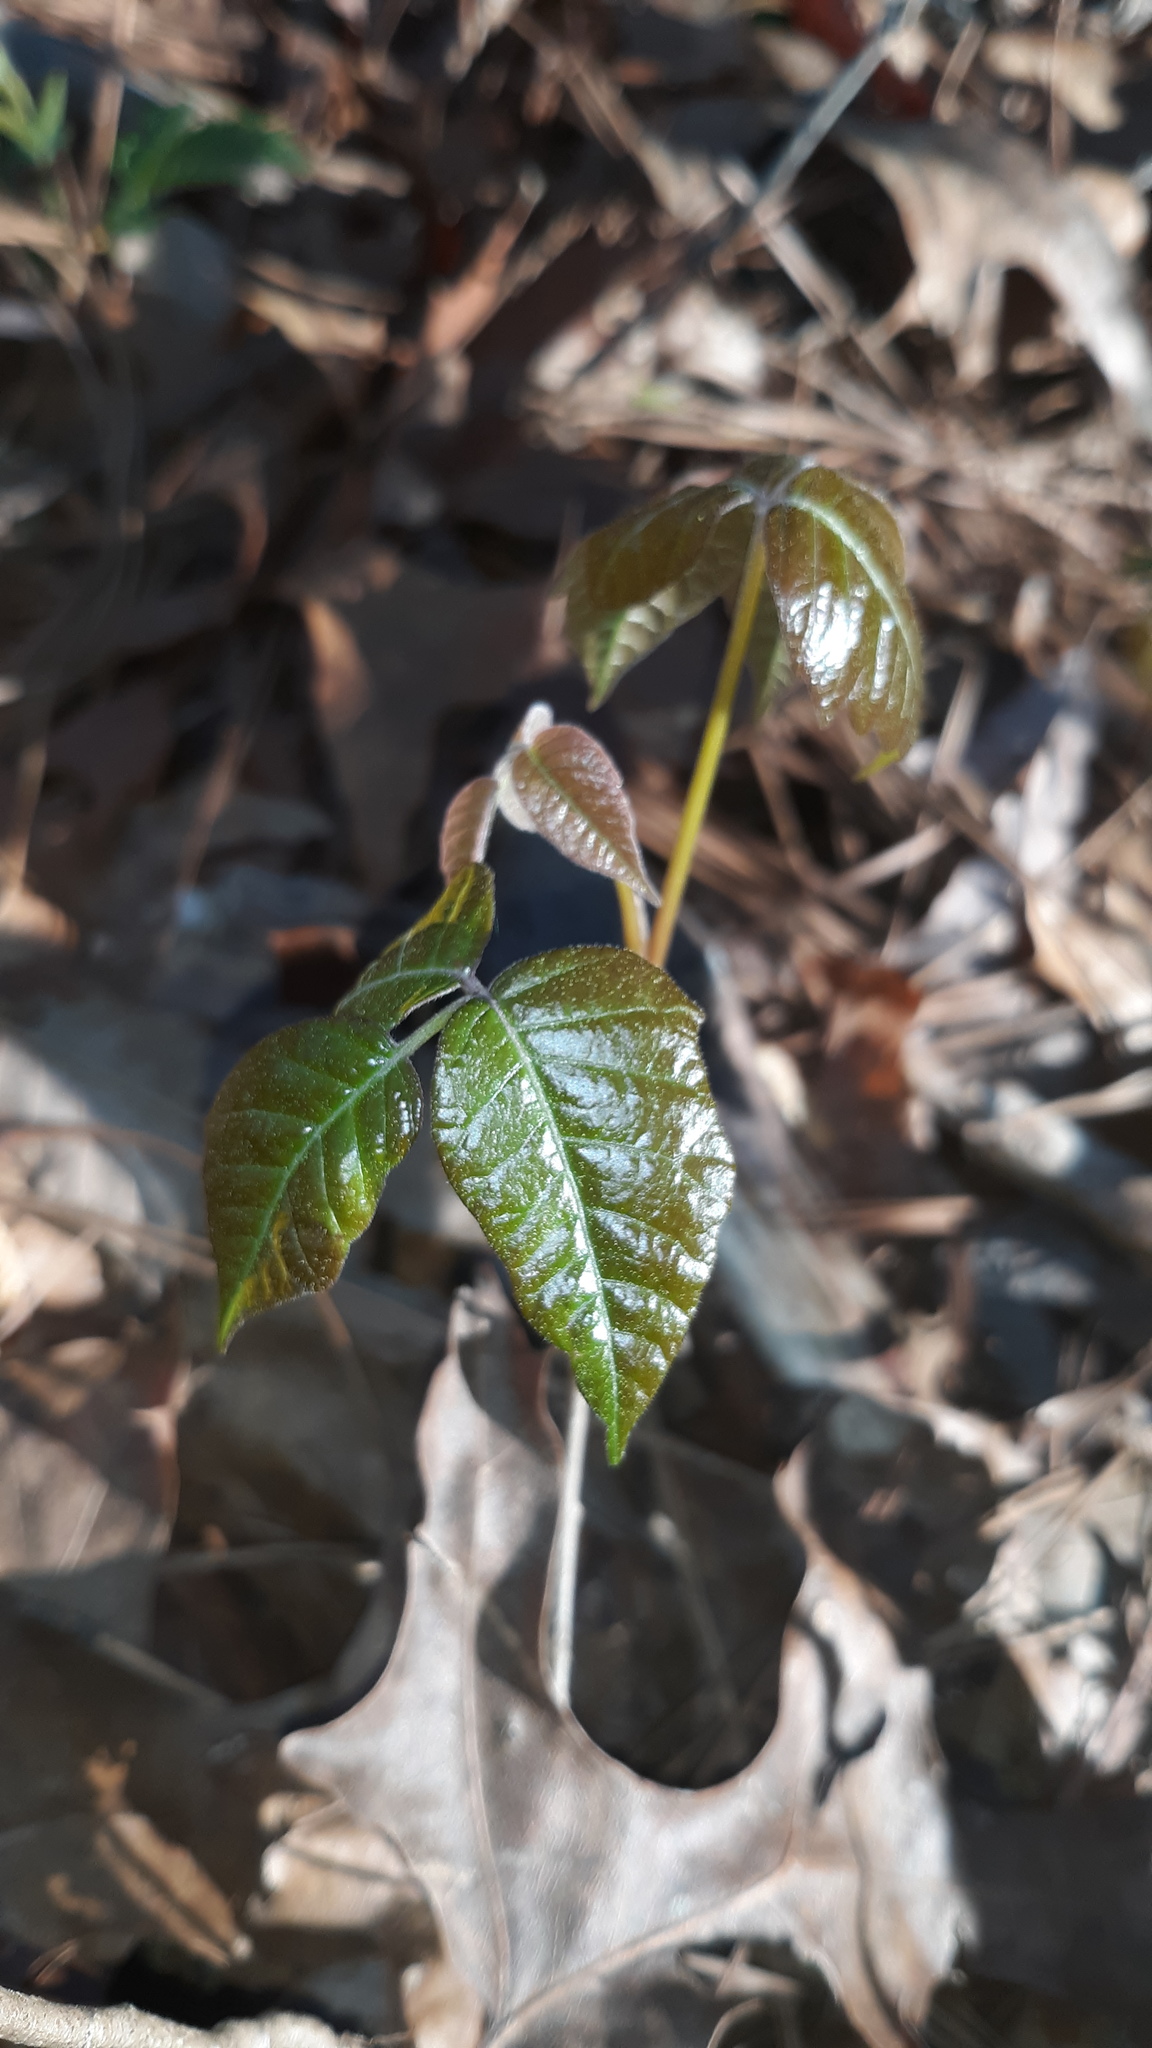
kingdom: Plantae
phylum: Tracheophyta
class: Magnoliopsida
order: Sapindales
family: Anacardiaceae
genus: Toxicodendron
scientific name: Toxicodendron radicans
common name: Poison ivy
